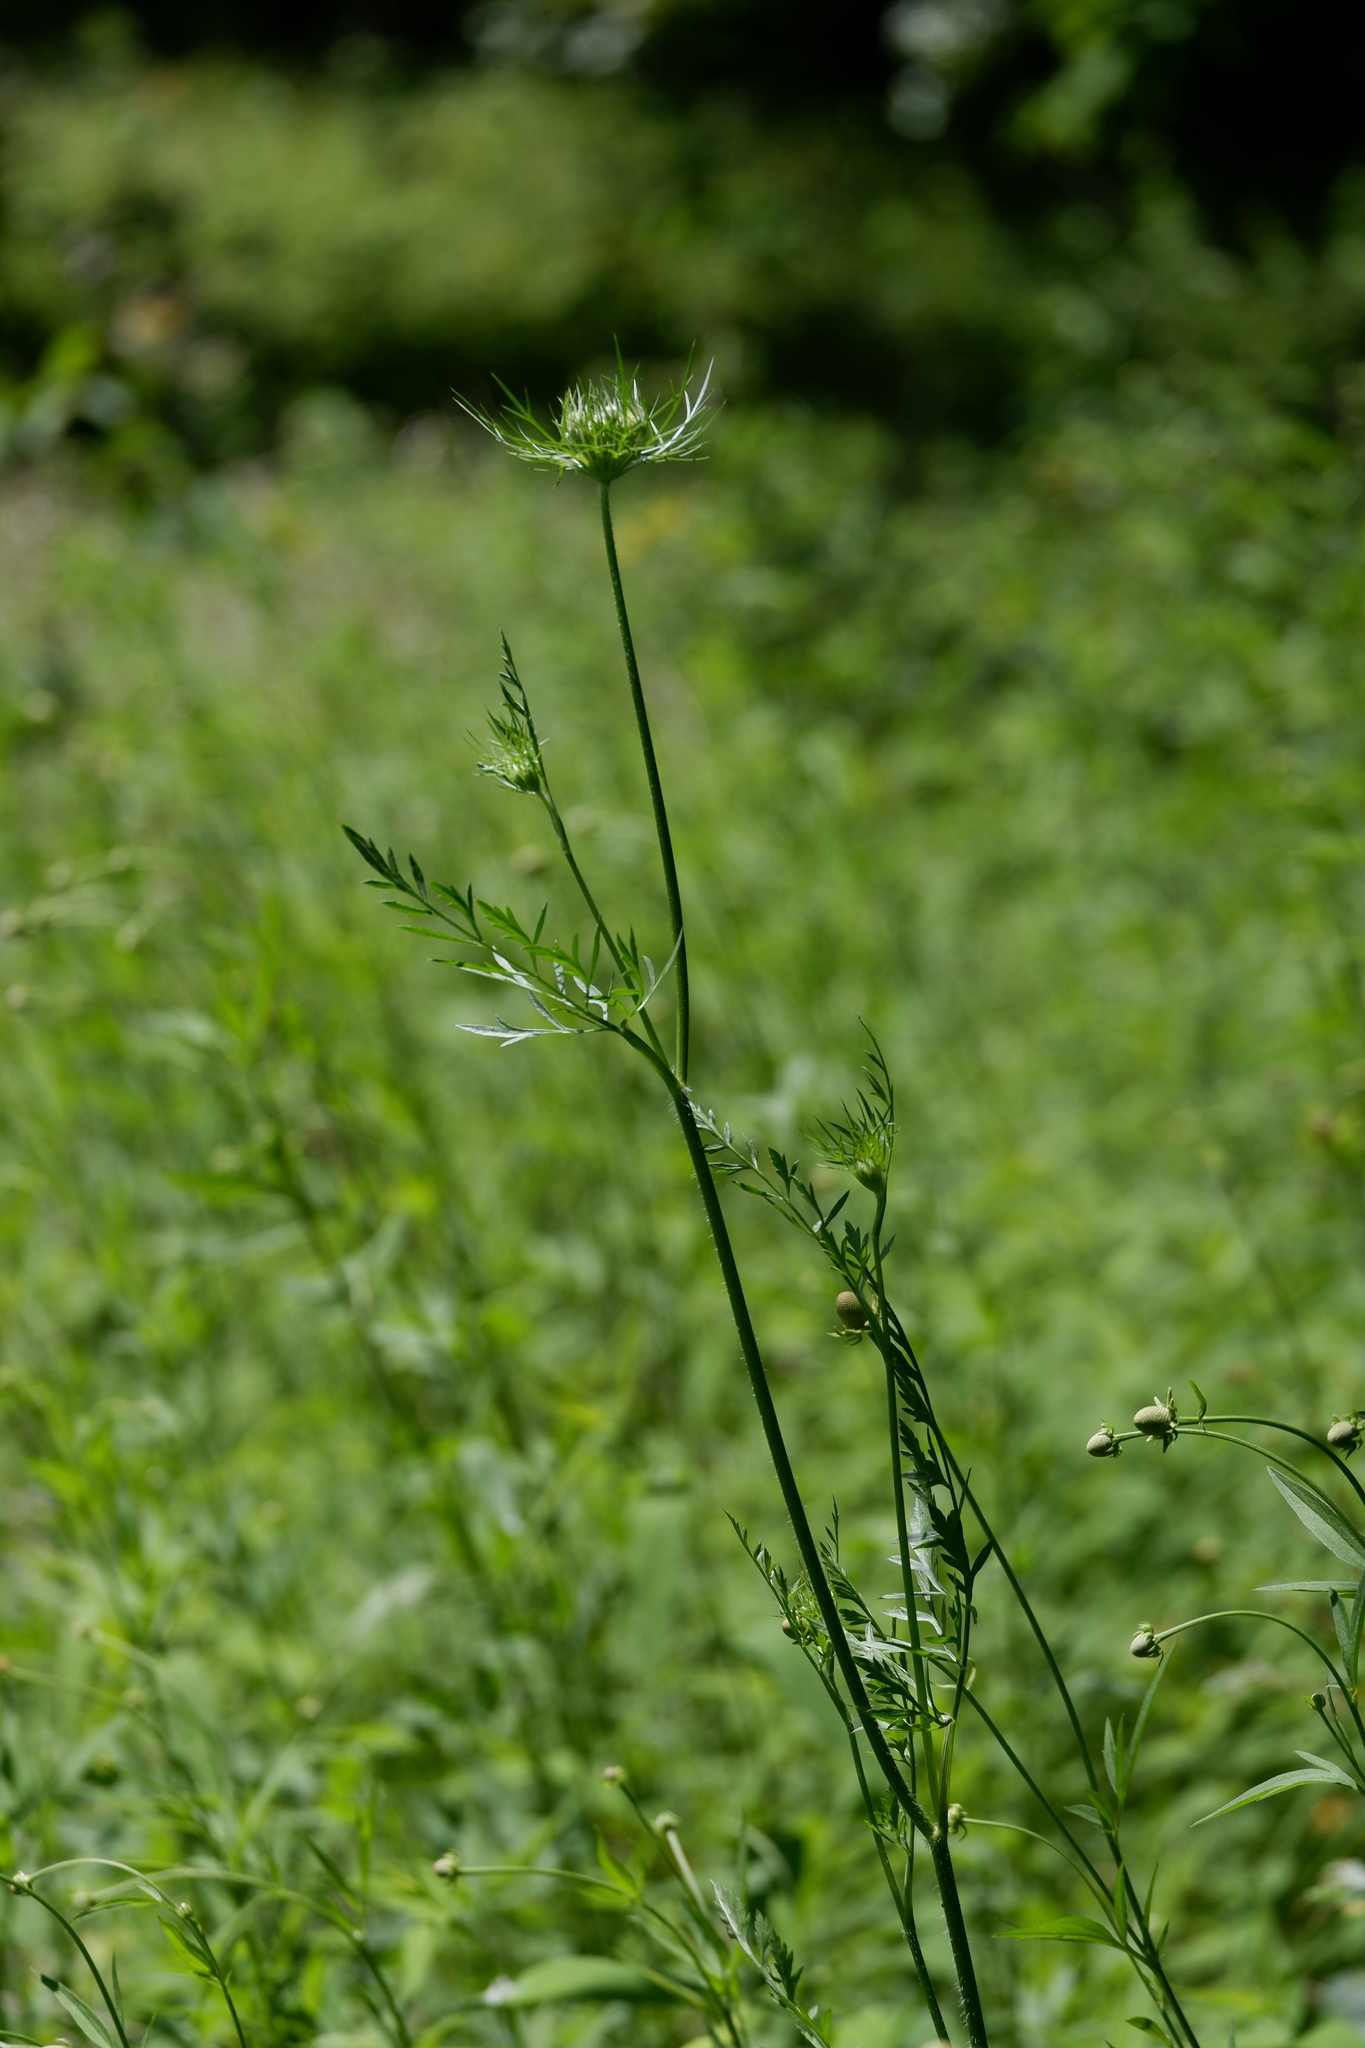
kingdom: Plantae
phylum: Tracheophyta
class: Magnoliopsida
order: Apiales
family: Apiaceae
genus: Daucus
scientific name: Daucus carota
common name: Wild carrot
